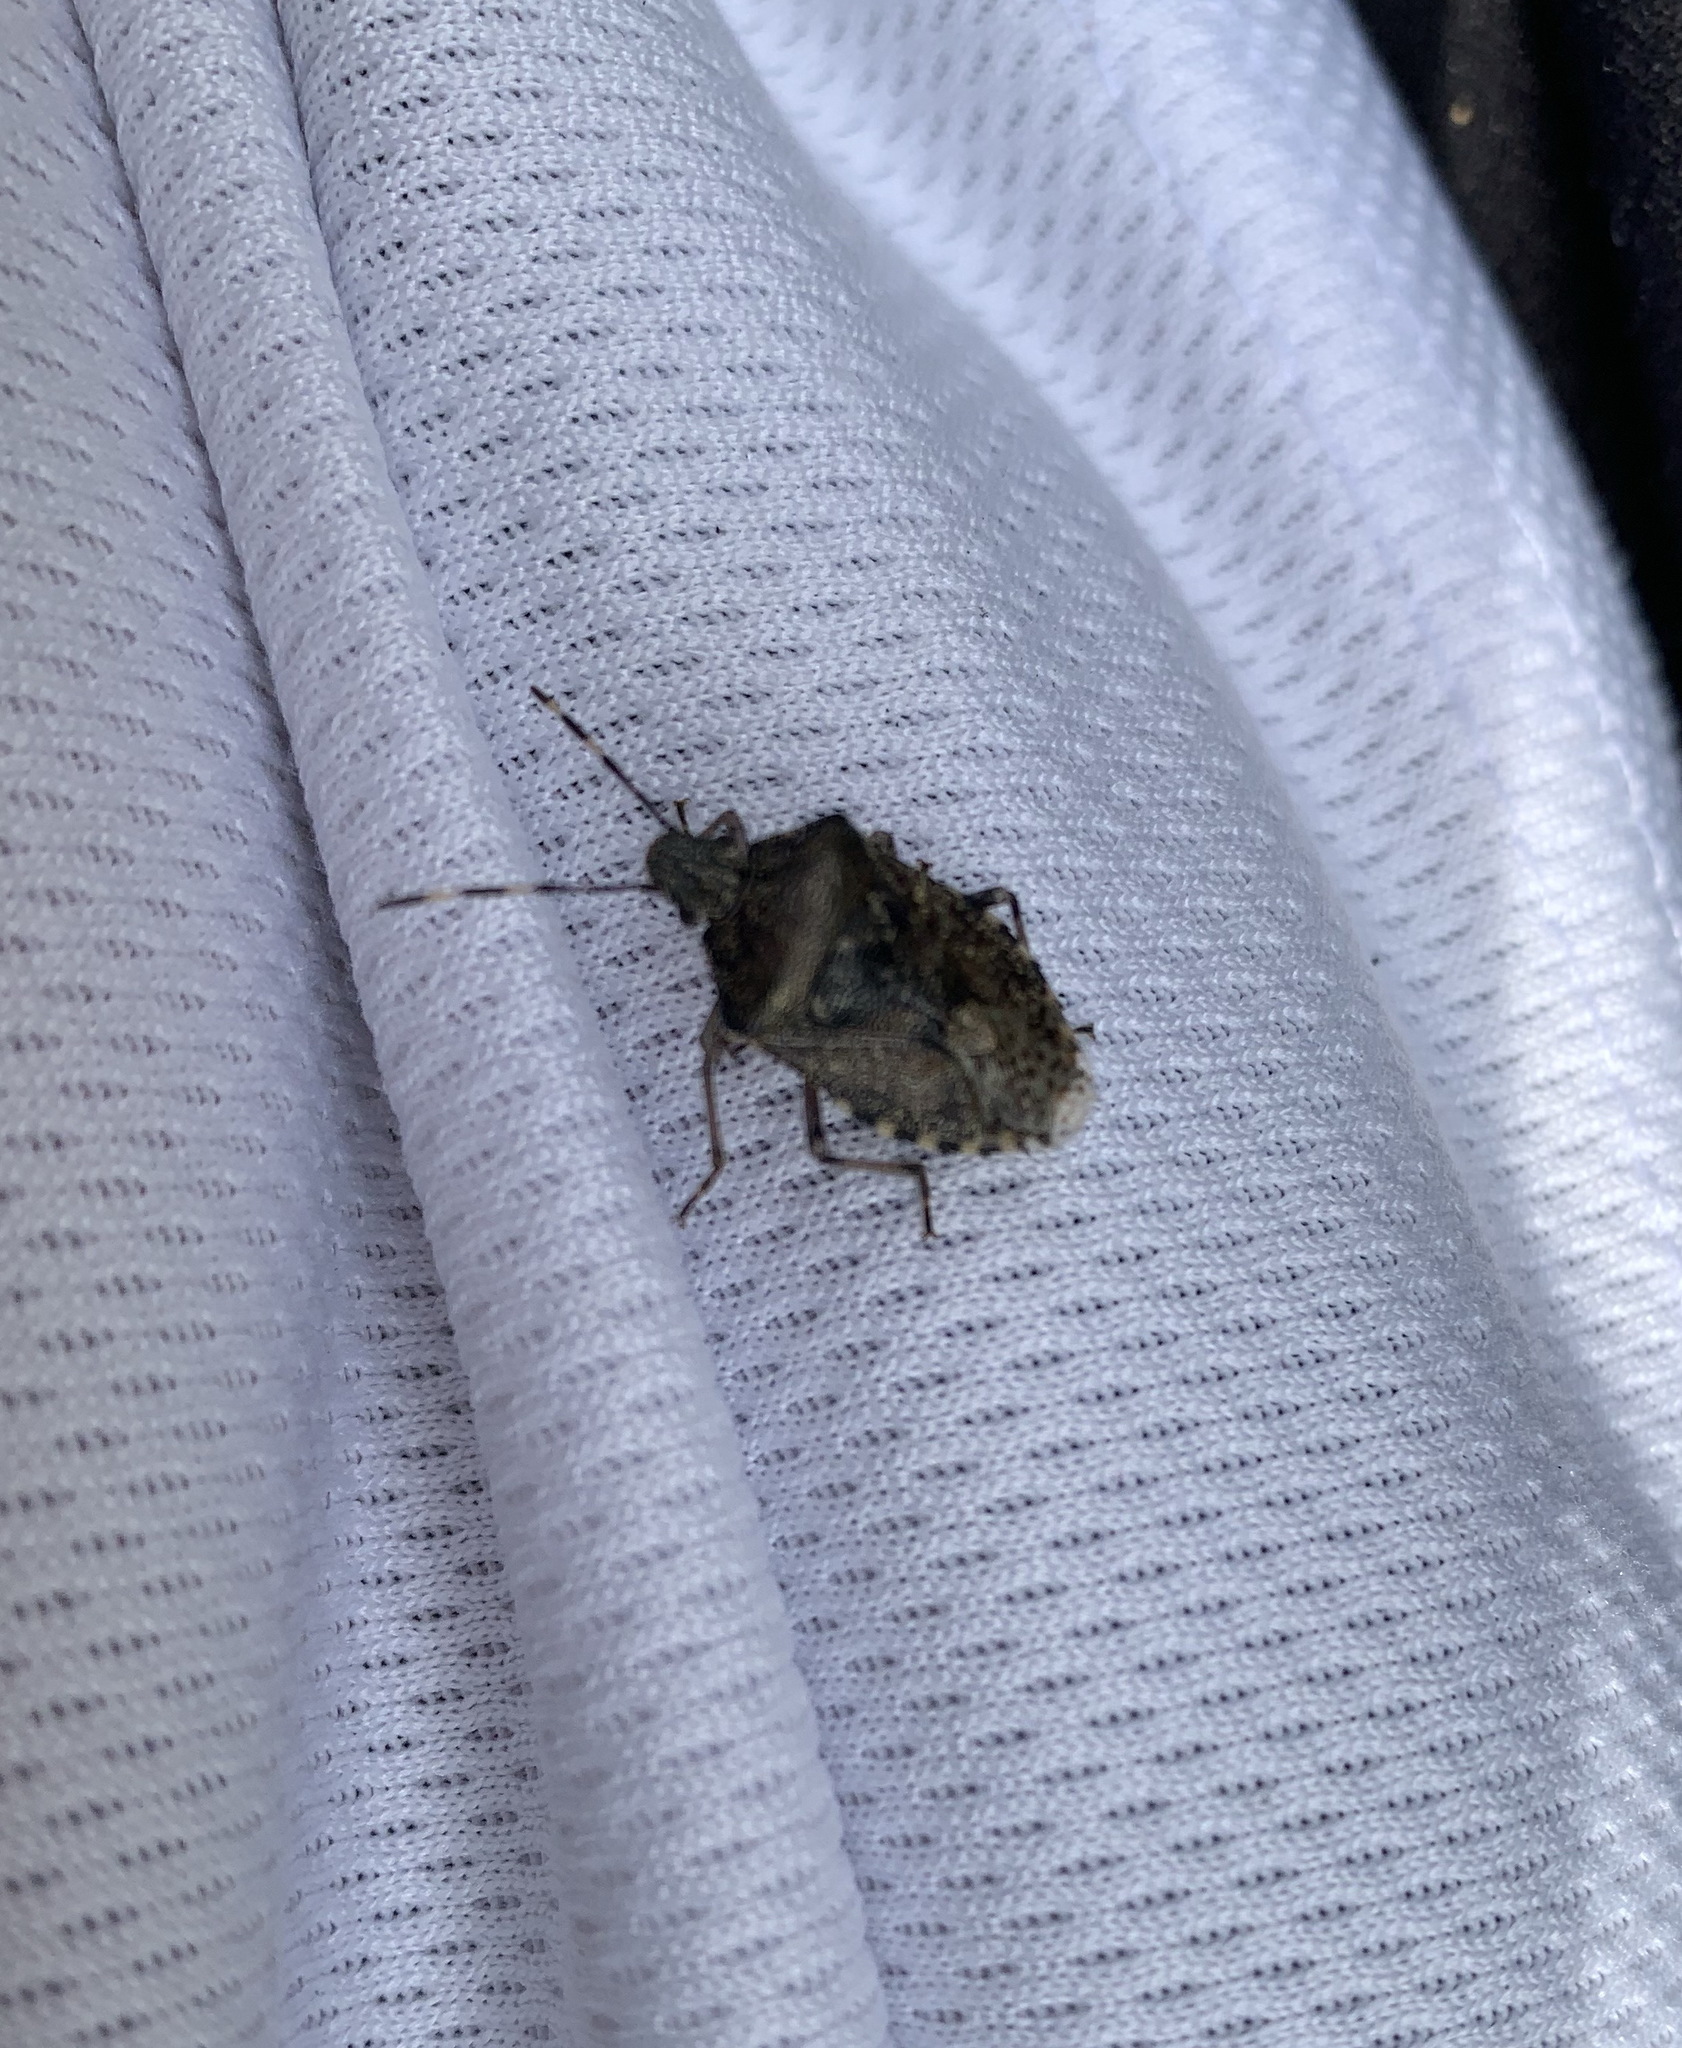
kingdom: Animalia
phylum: Arthropoda
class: Insecta
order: Hemiptera
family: Pentatomidae
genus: Rhaphigaster
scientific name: Rhaphigaster nebulosa
